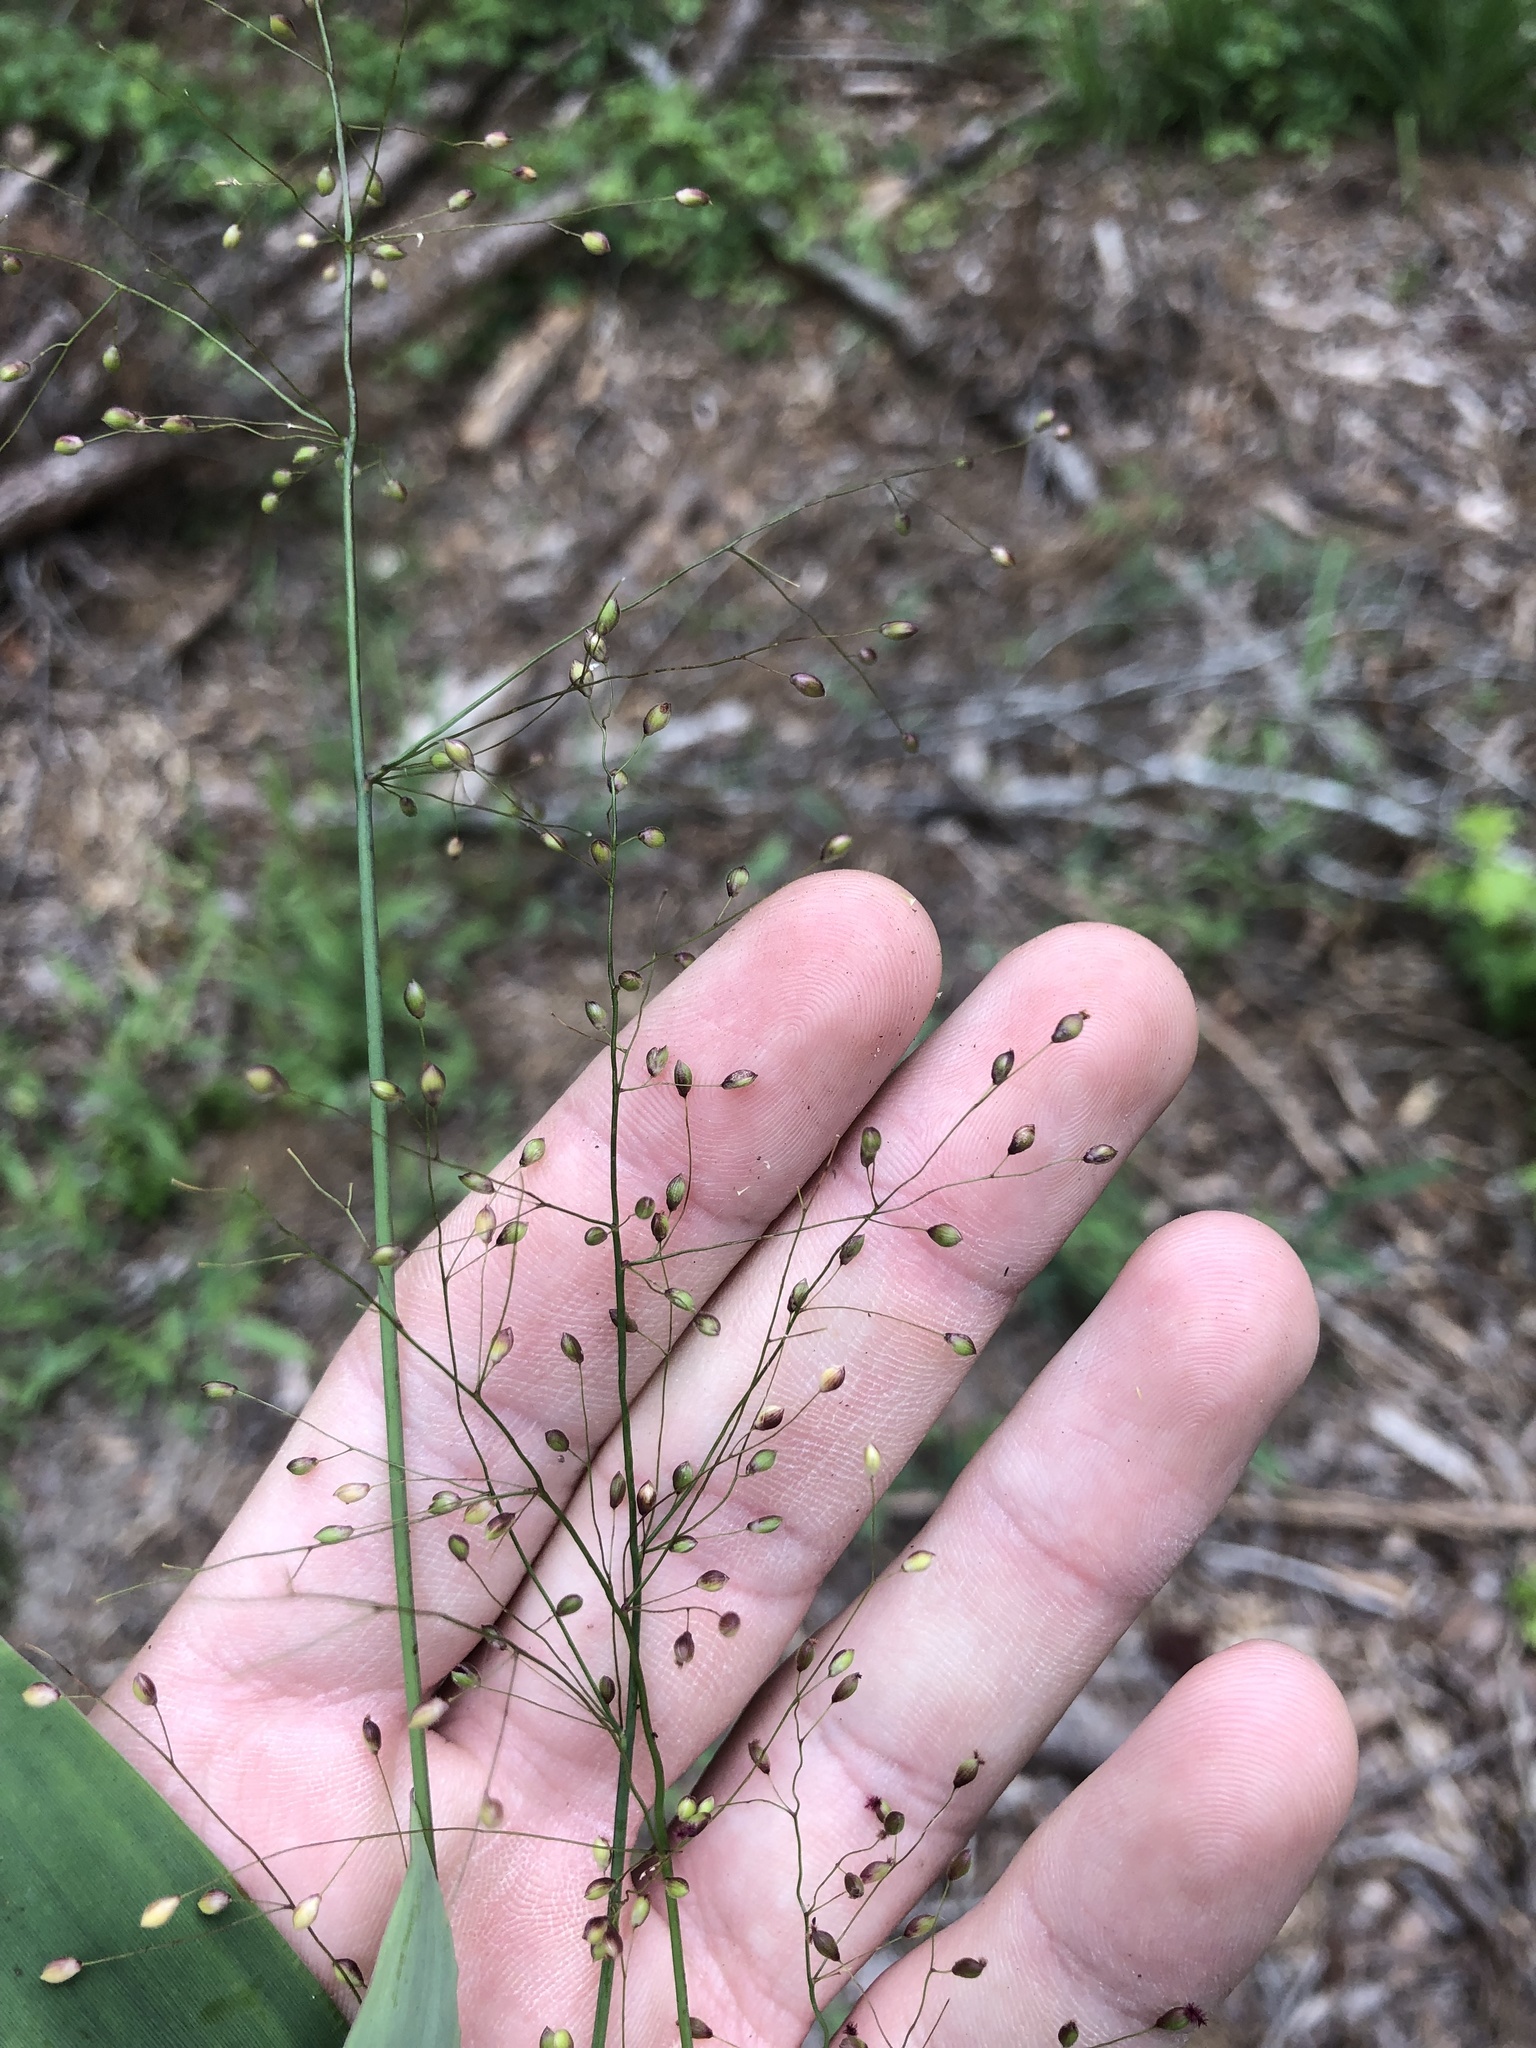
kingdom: Plantae
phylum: Tracheophyta
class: Liliopsida
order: Poales
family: Poaceae
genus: Dichanthelium
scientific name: Dichanthelium commutatum
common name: Variable witchgrass
